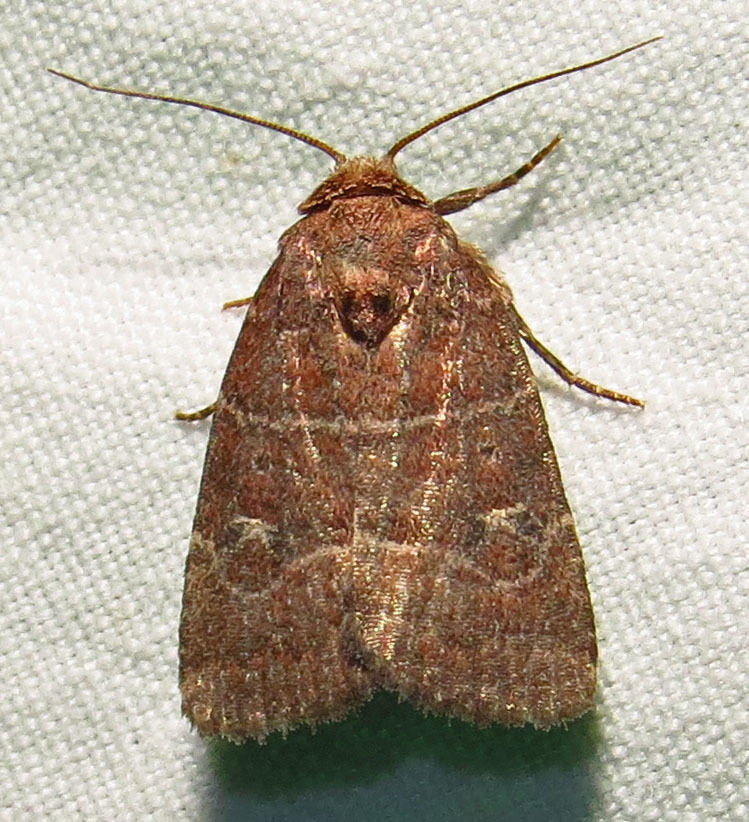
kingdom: Animalia
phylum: Arthropoda
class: Insecta
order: Lepidoptera
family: Noctuidae
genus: Elaphria
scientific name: Elaphria grata
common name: Grateful midget moth
